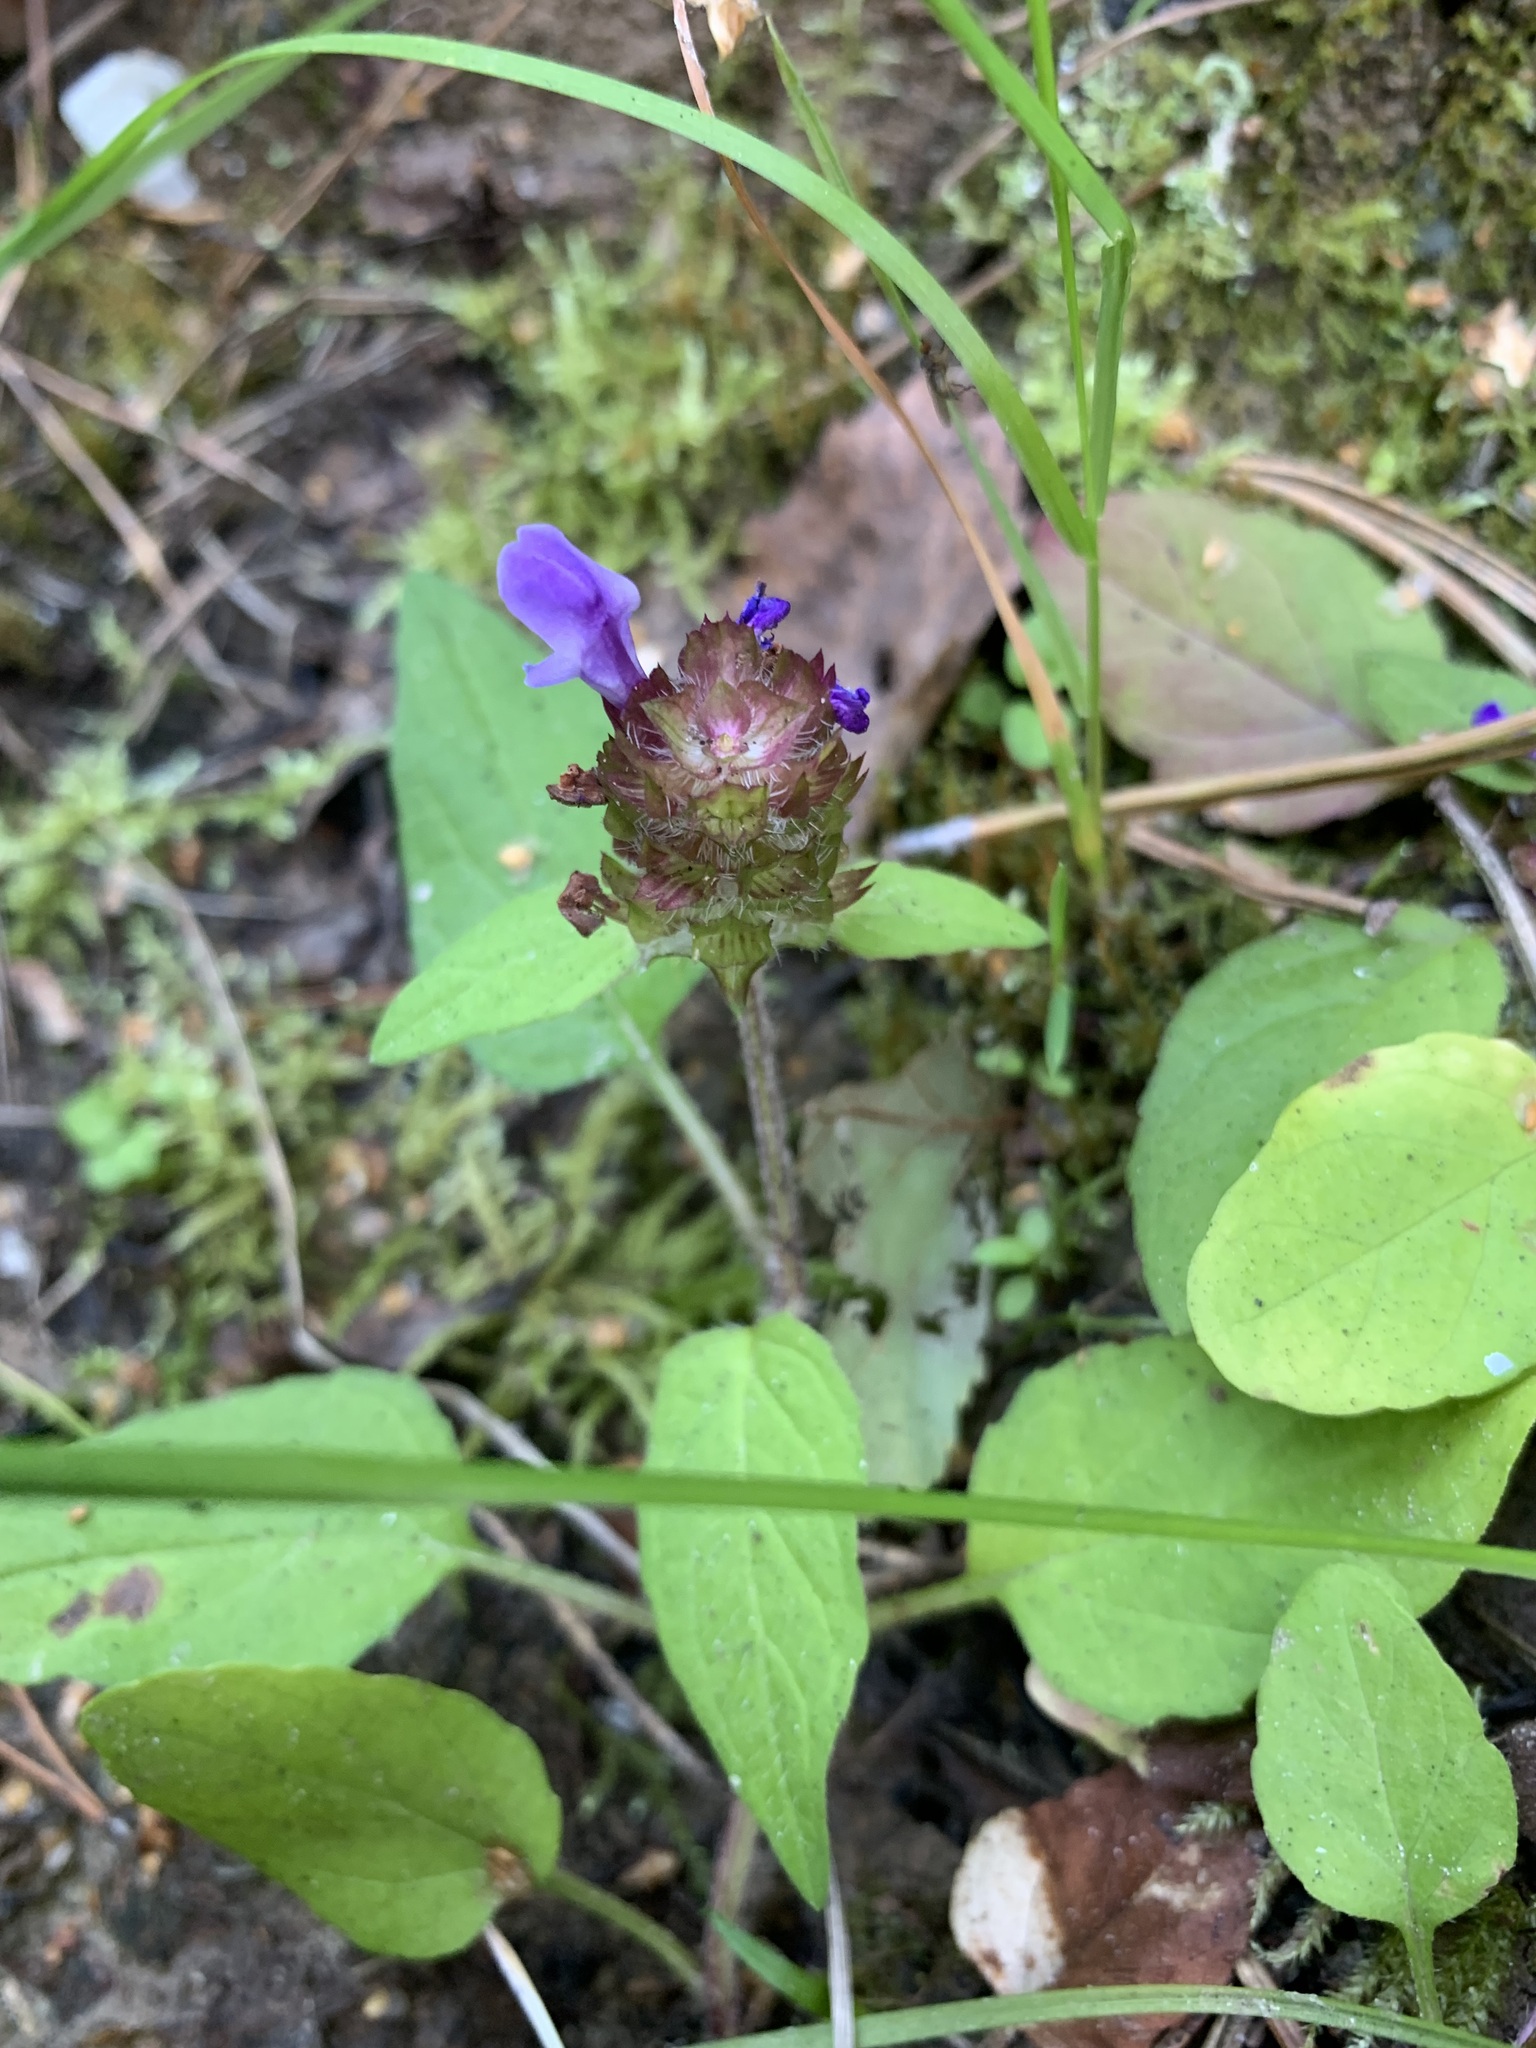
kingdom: Plantae
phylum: Tracheophyta
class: Magnoliopsida
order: Lamiales
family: Lamiaceae
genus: Prunella
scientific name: Prunella vulgaris
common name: Heal-all
